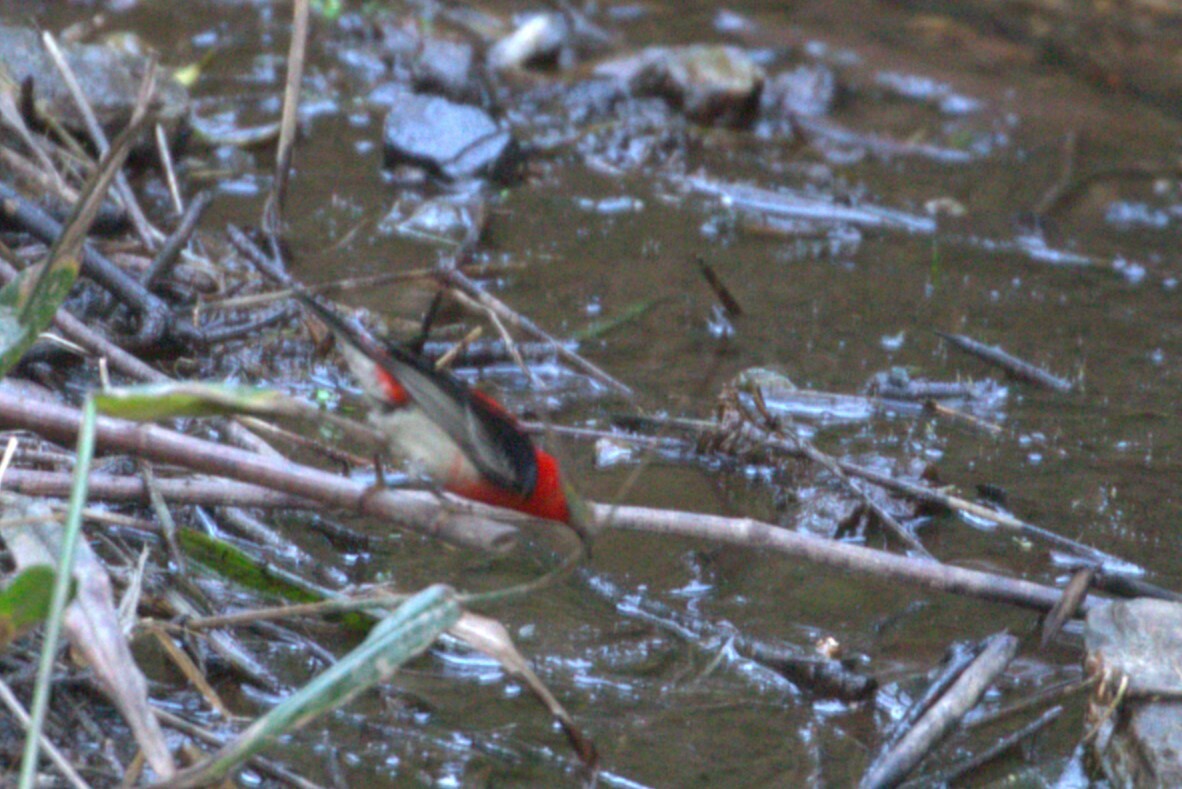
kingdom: Animalia
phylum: Chordata
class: Aves
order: Passeriformes
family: Meliphagidae
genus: Myzomela
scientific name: Myzomela sanguinolenta
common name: Scarlet myzomela
